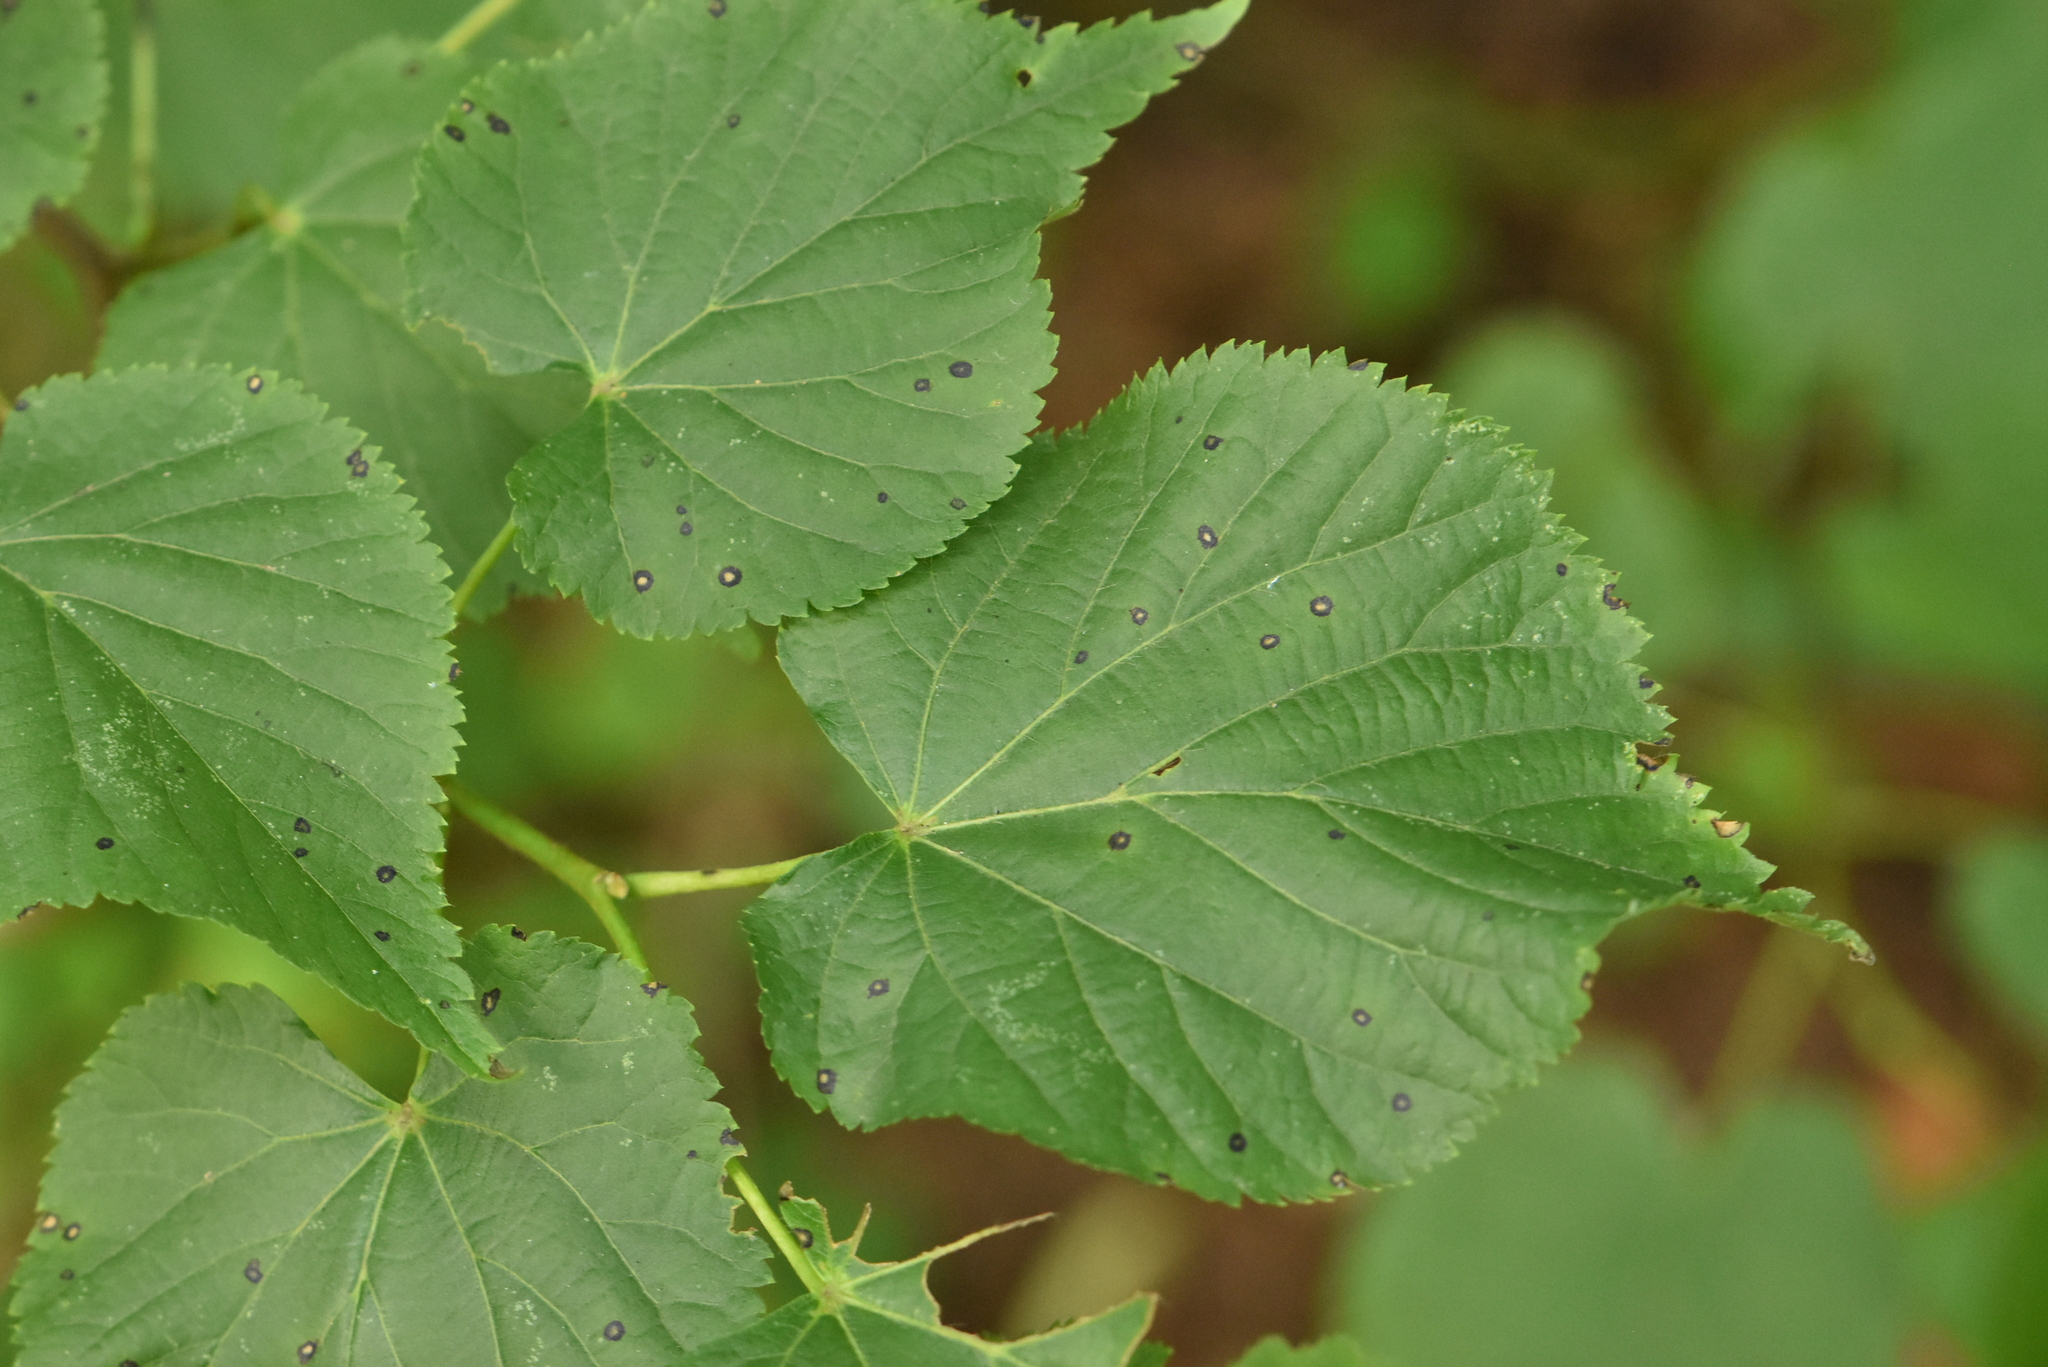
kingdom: Plantae
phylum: Tracheophyta
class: Magnoliopsida
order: Malvales
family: Malvaceae
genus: Tilia
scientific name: Tilia cordata
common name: Small-leaved lime
